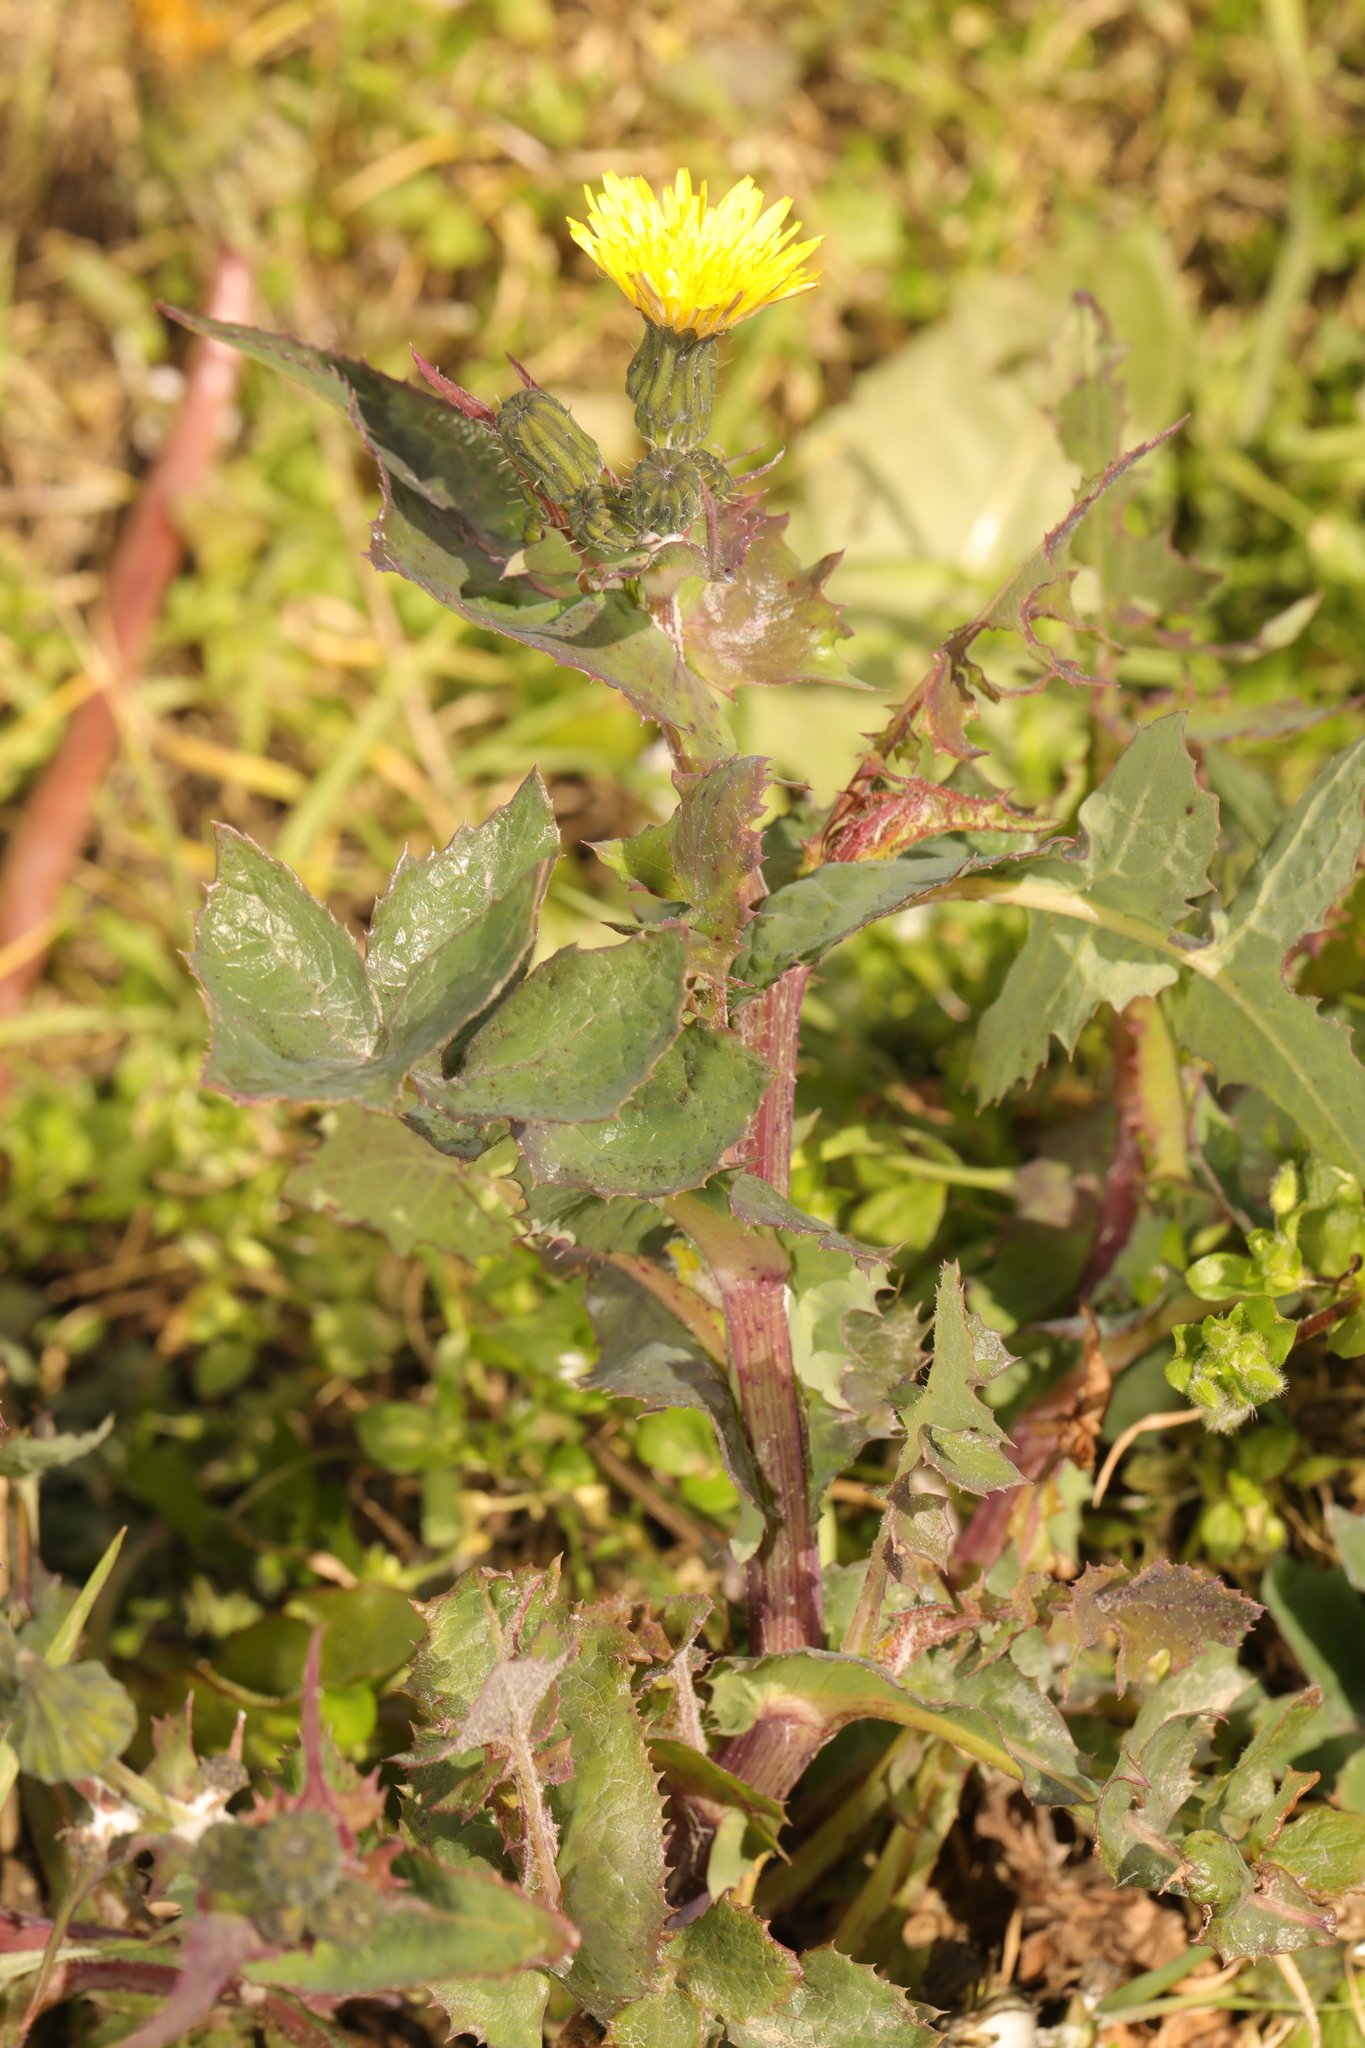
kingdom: Plantae
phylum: Tracheophyta
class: Magnoliopsida
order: Asterales
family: Asteraceae
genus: Sonchus
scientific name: Sonchus oleraceus
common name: Common sowthistle
